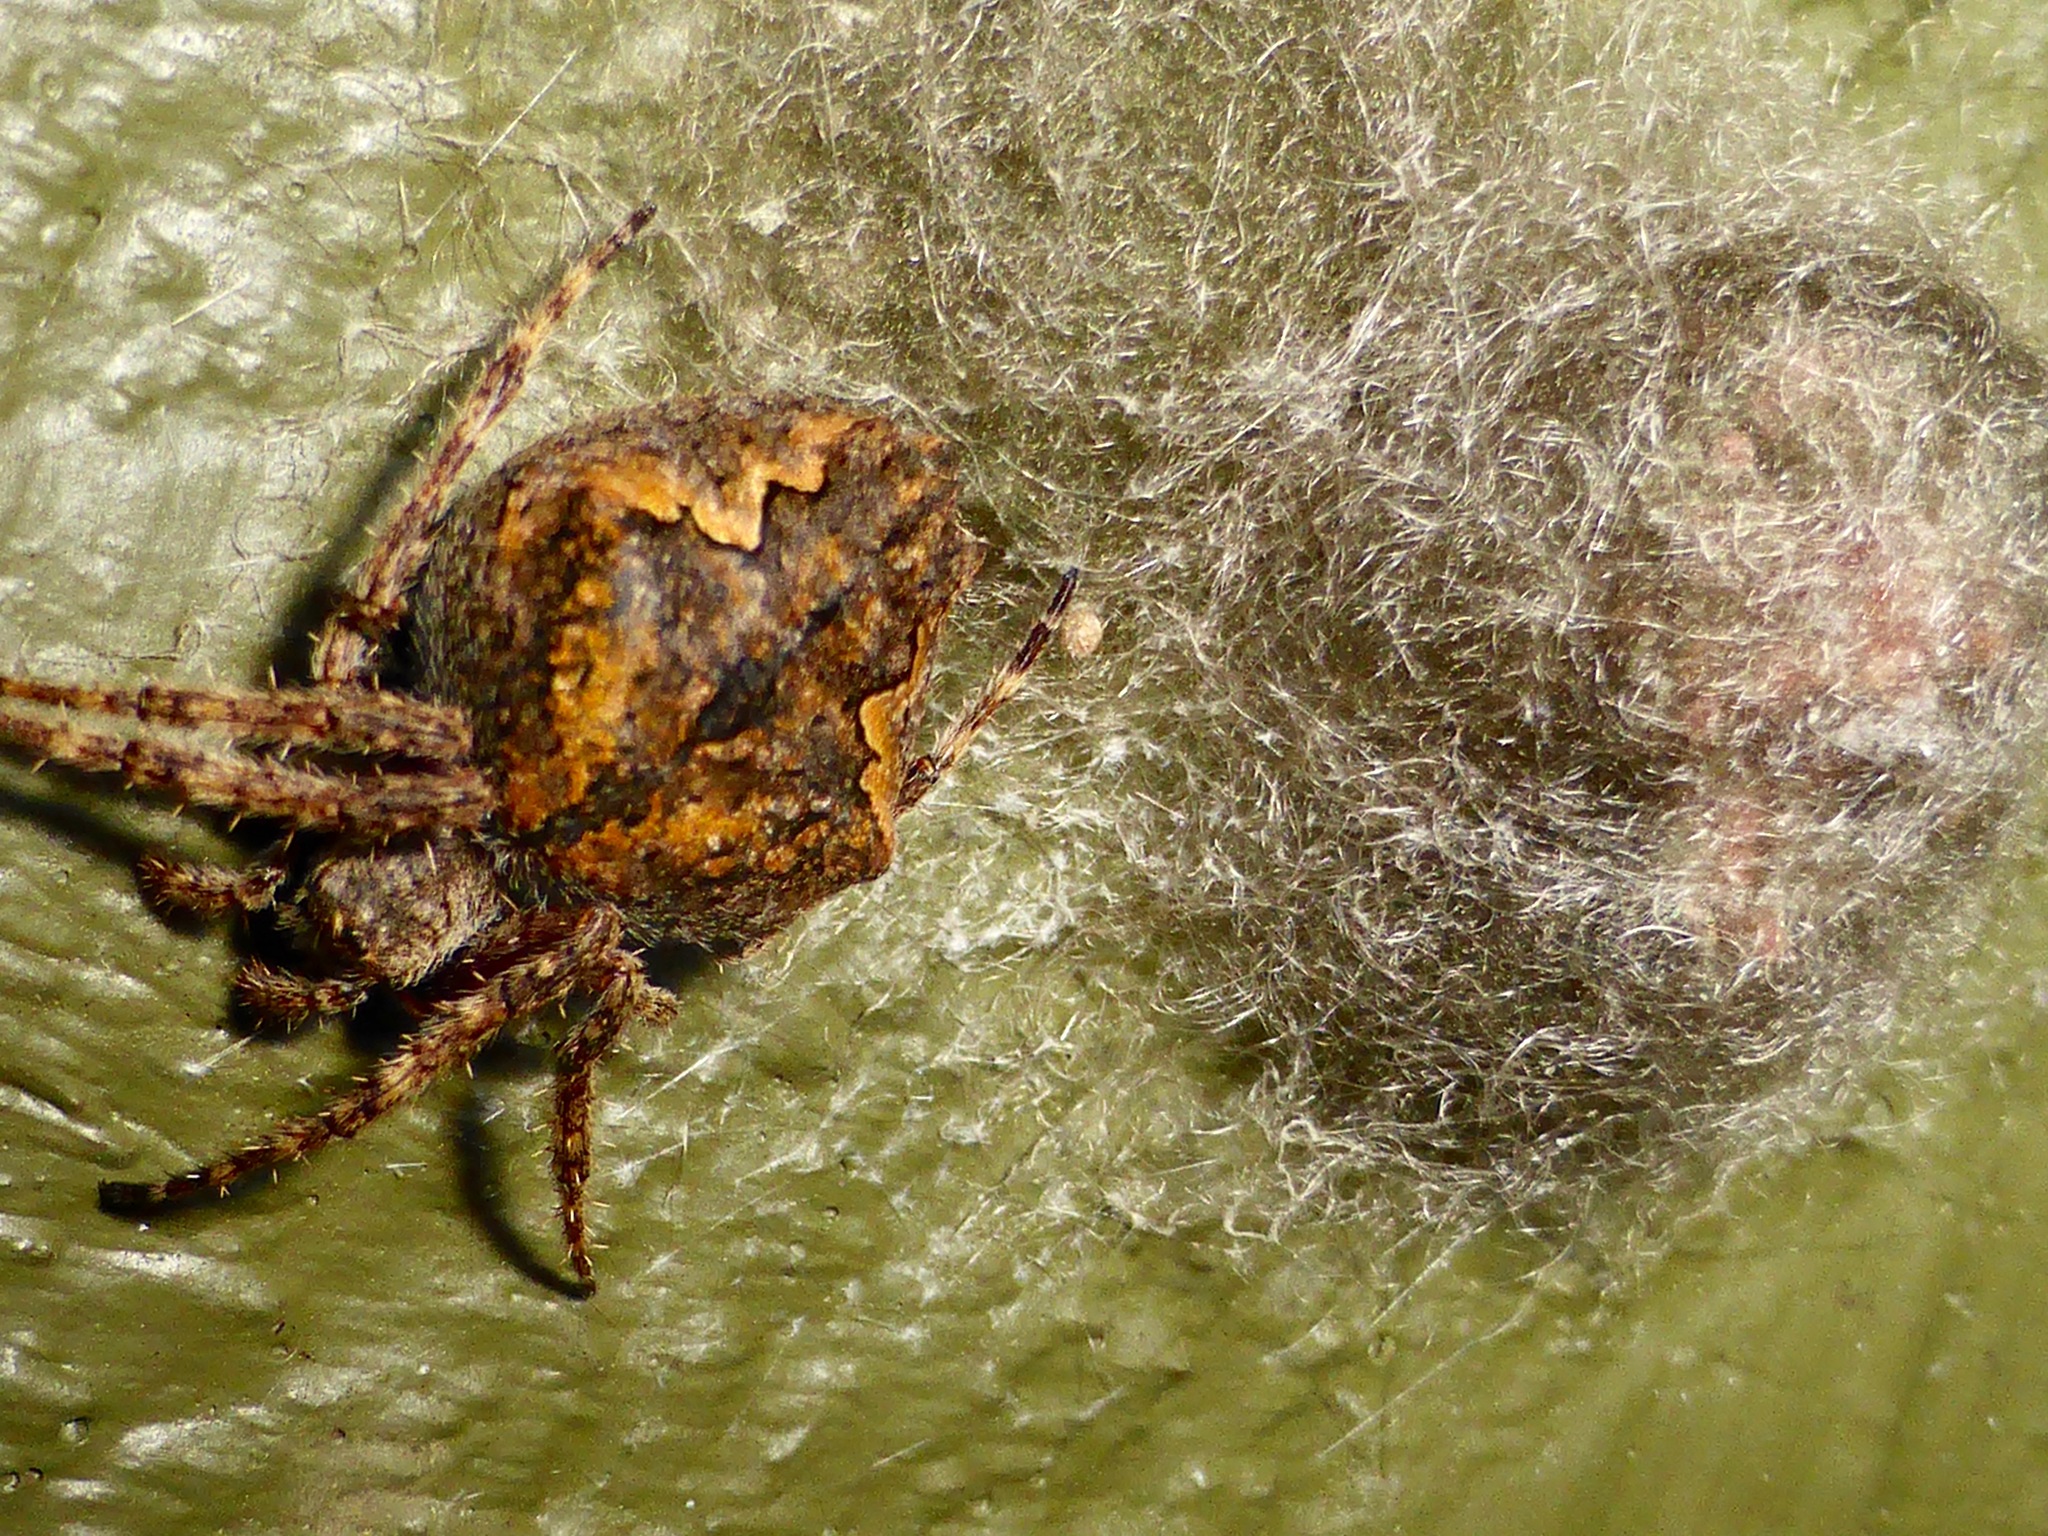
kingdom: Animalia
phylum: Arthropoda
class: Arachnida
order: Araneae
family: Araneidae
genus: Eriophora
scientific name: Eriophora pustulosa
